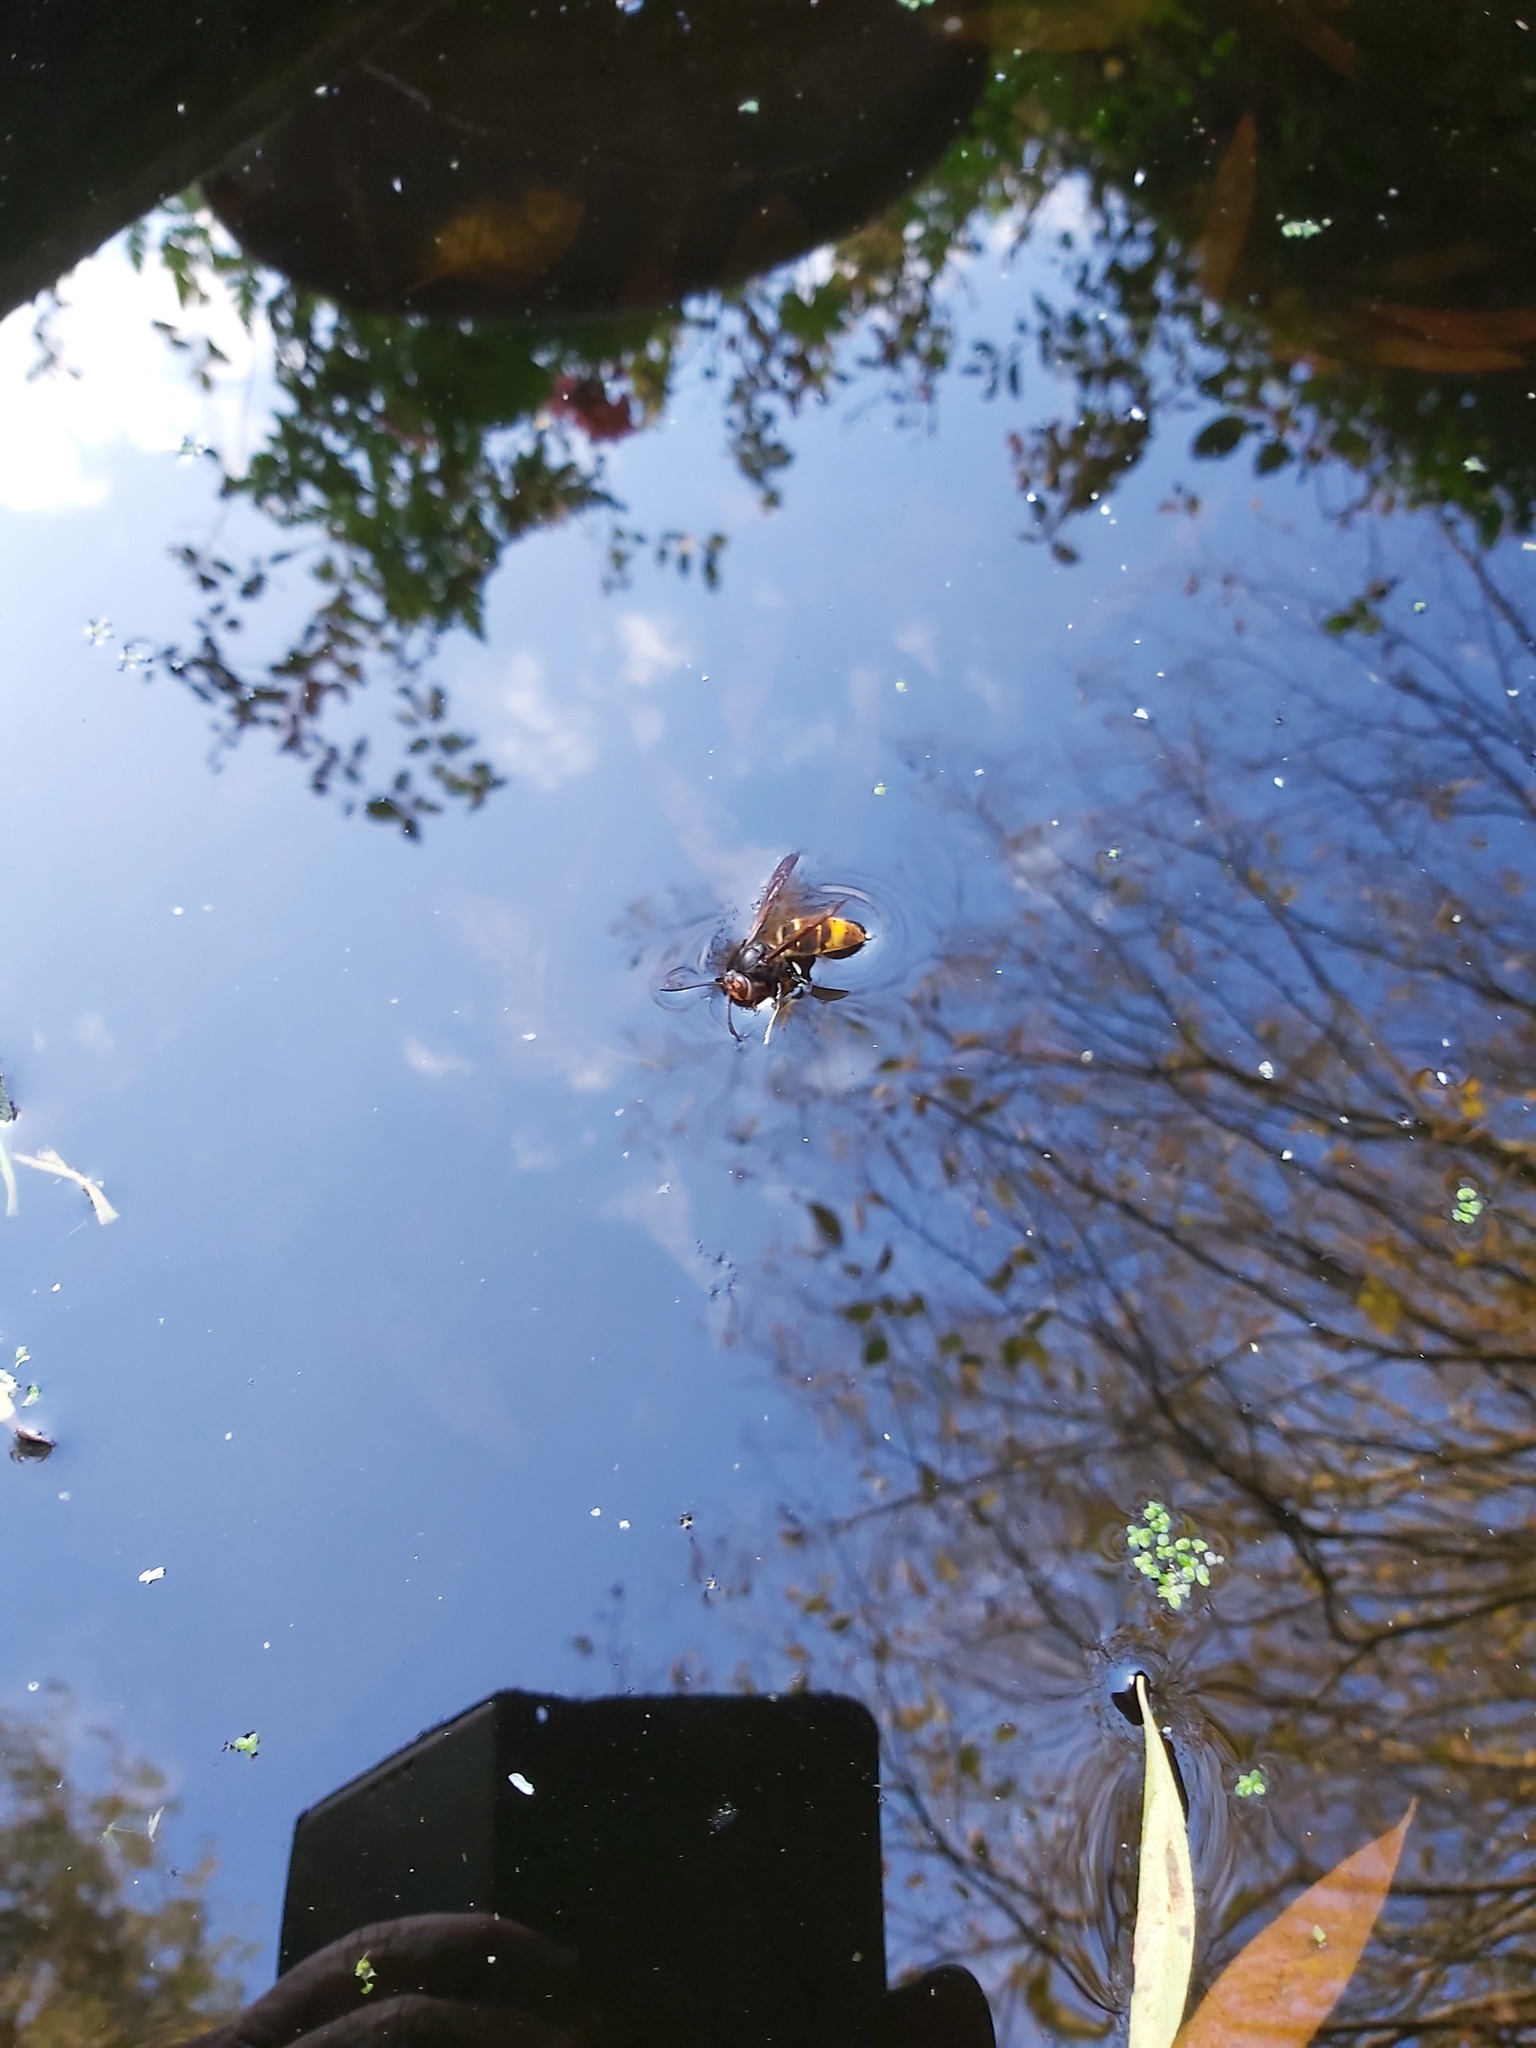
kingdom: Animalia
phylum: Arthropoda
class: Insecta
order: Hymenoptera
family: Vespidae
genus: Vespa
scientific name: Vespa velutina
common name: Asian hornet
